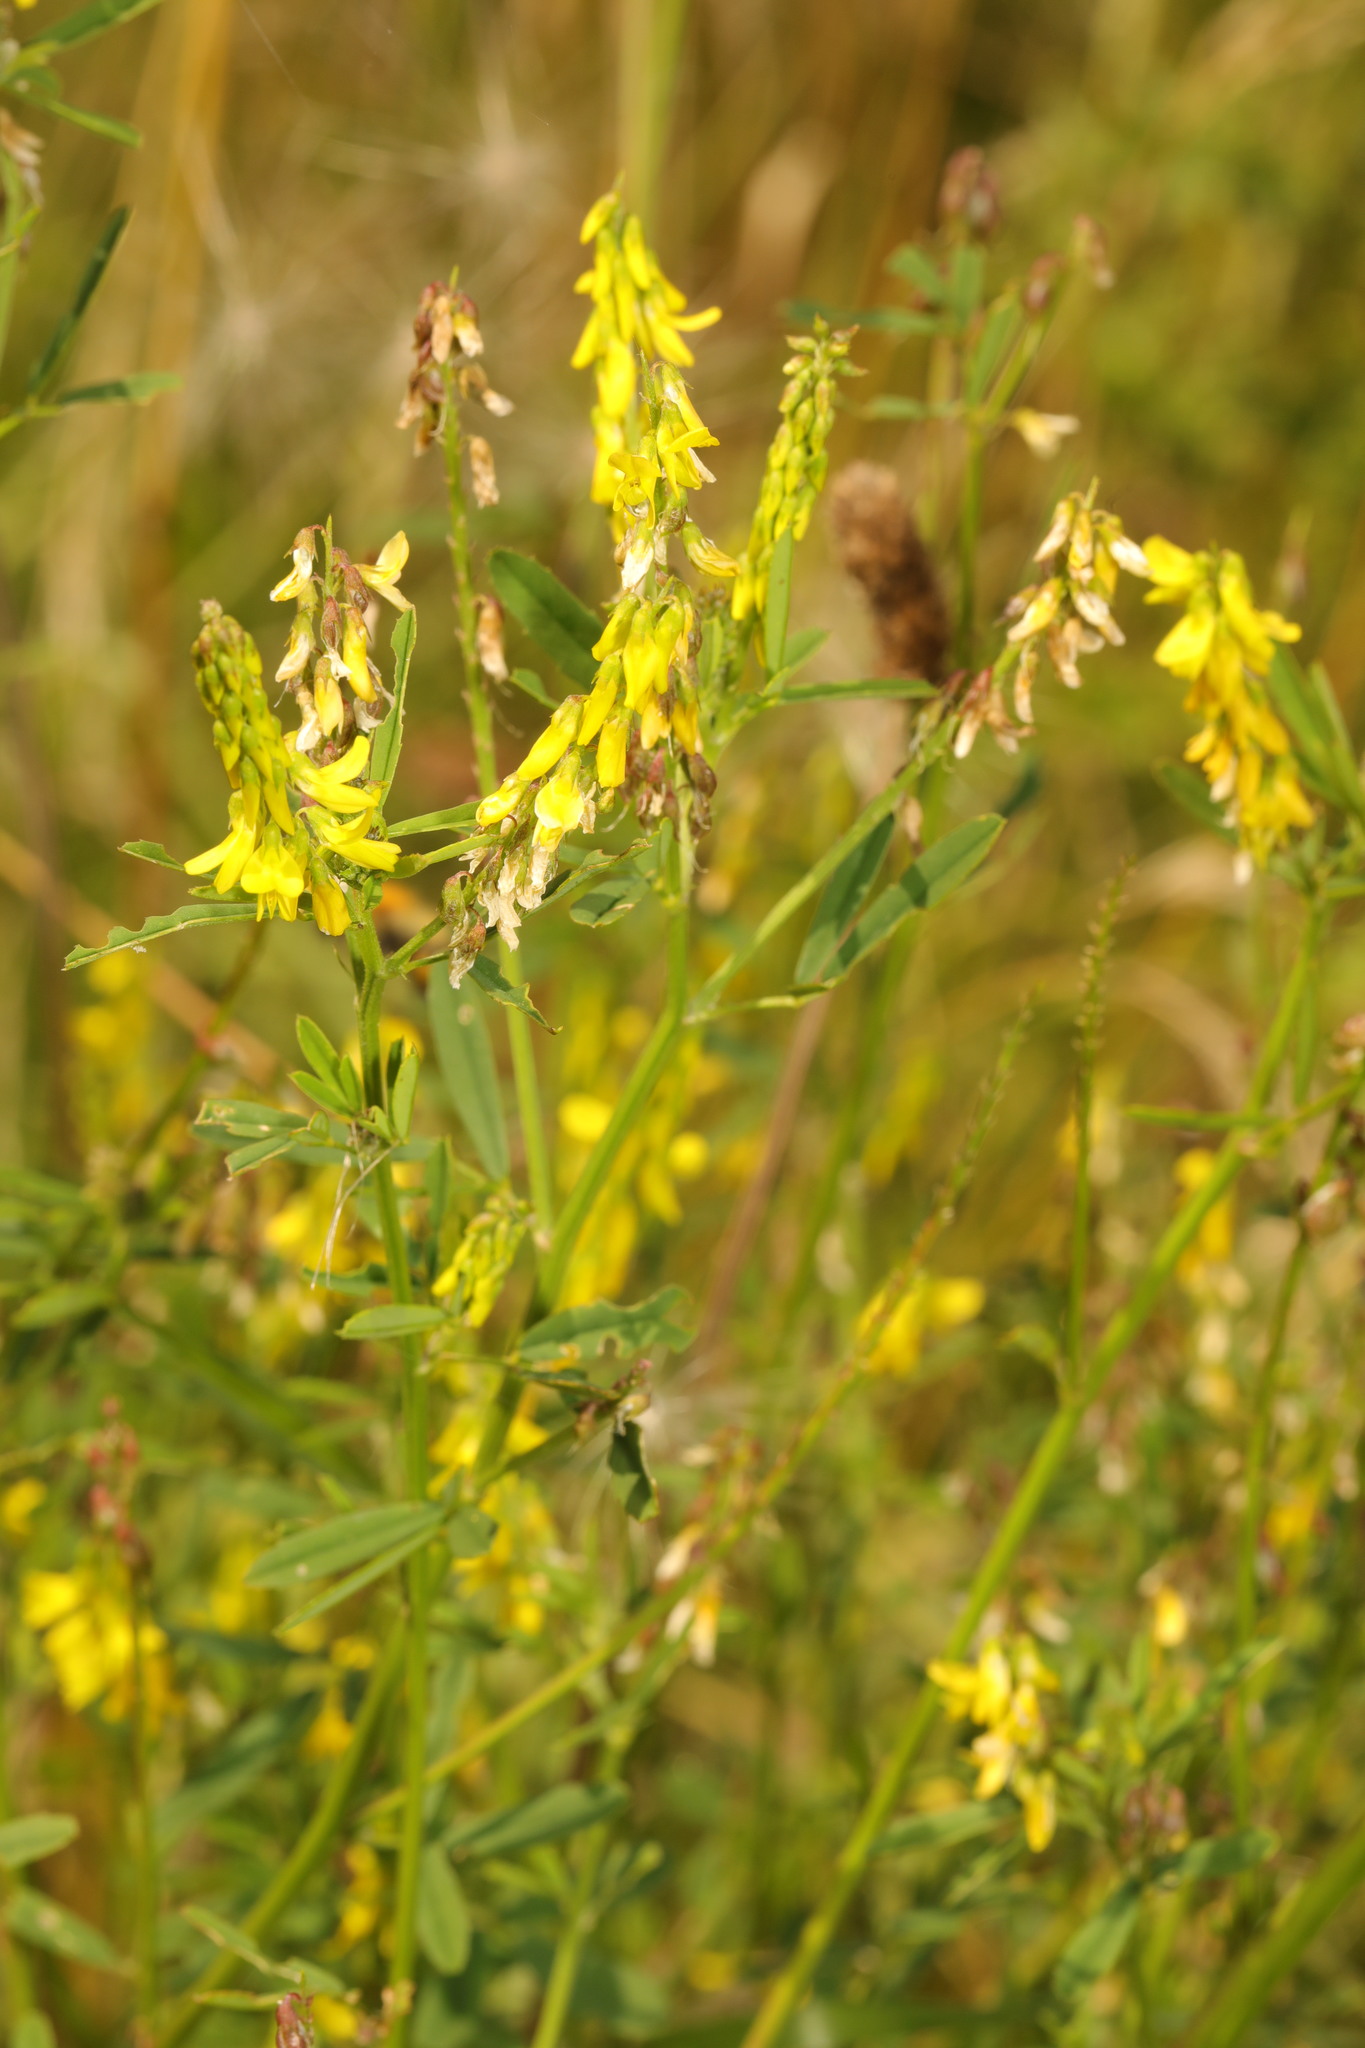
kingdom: Plantae
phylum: Tracheophyta
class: Magnoliopsida
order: Fabales
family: Fabaceae
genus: Melilotus
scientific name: Melilotus officinalis
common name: Sweetclover
